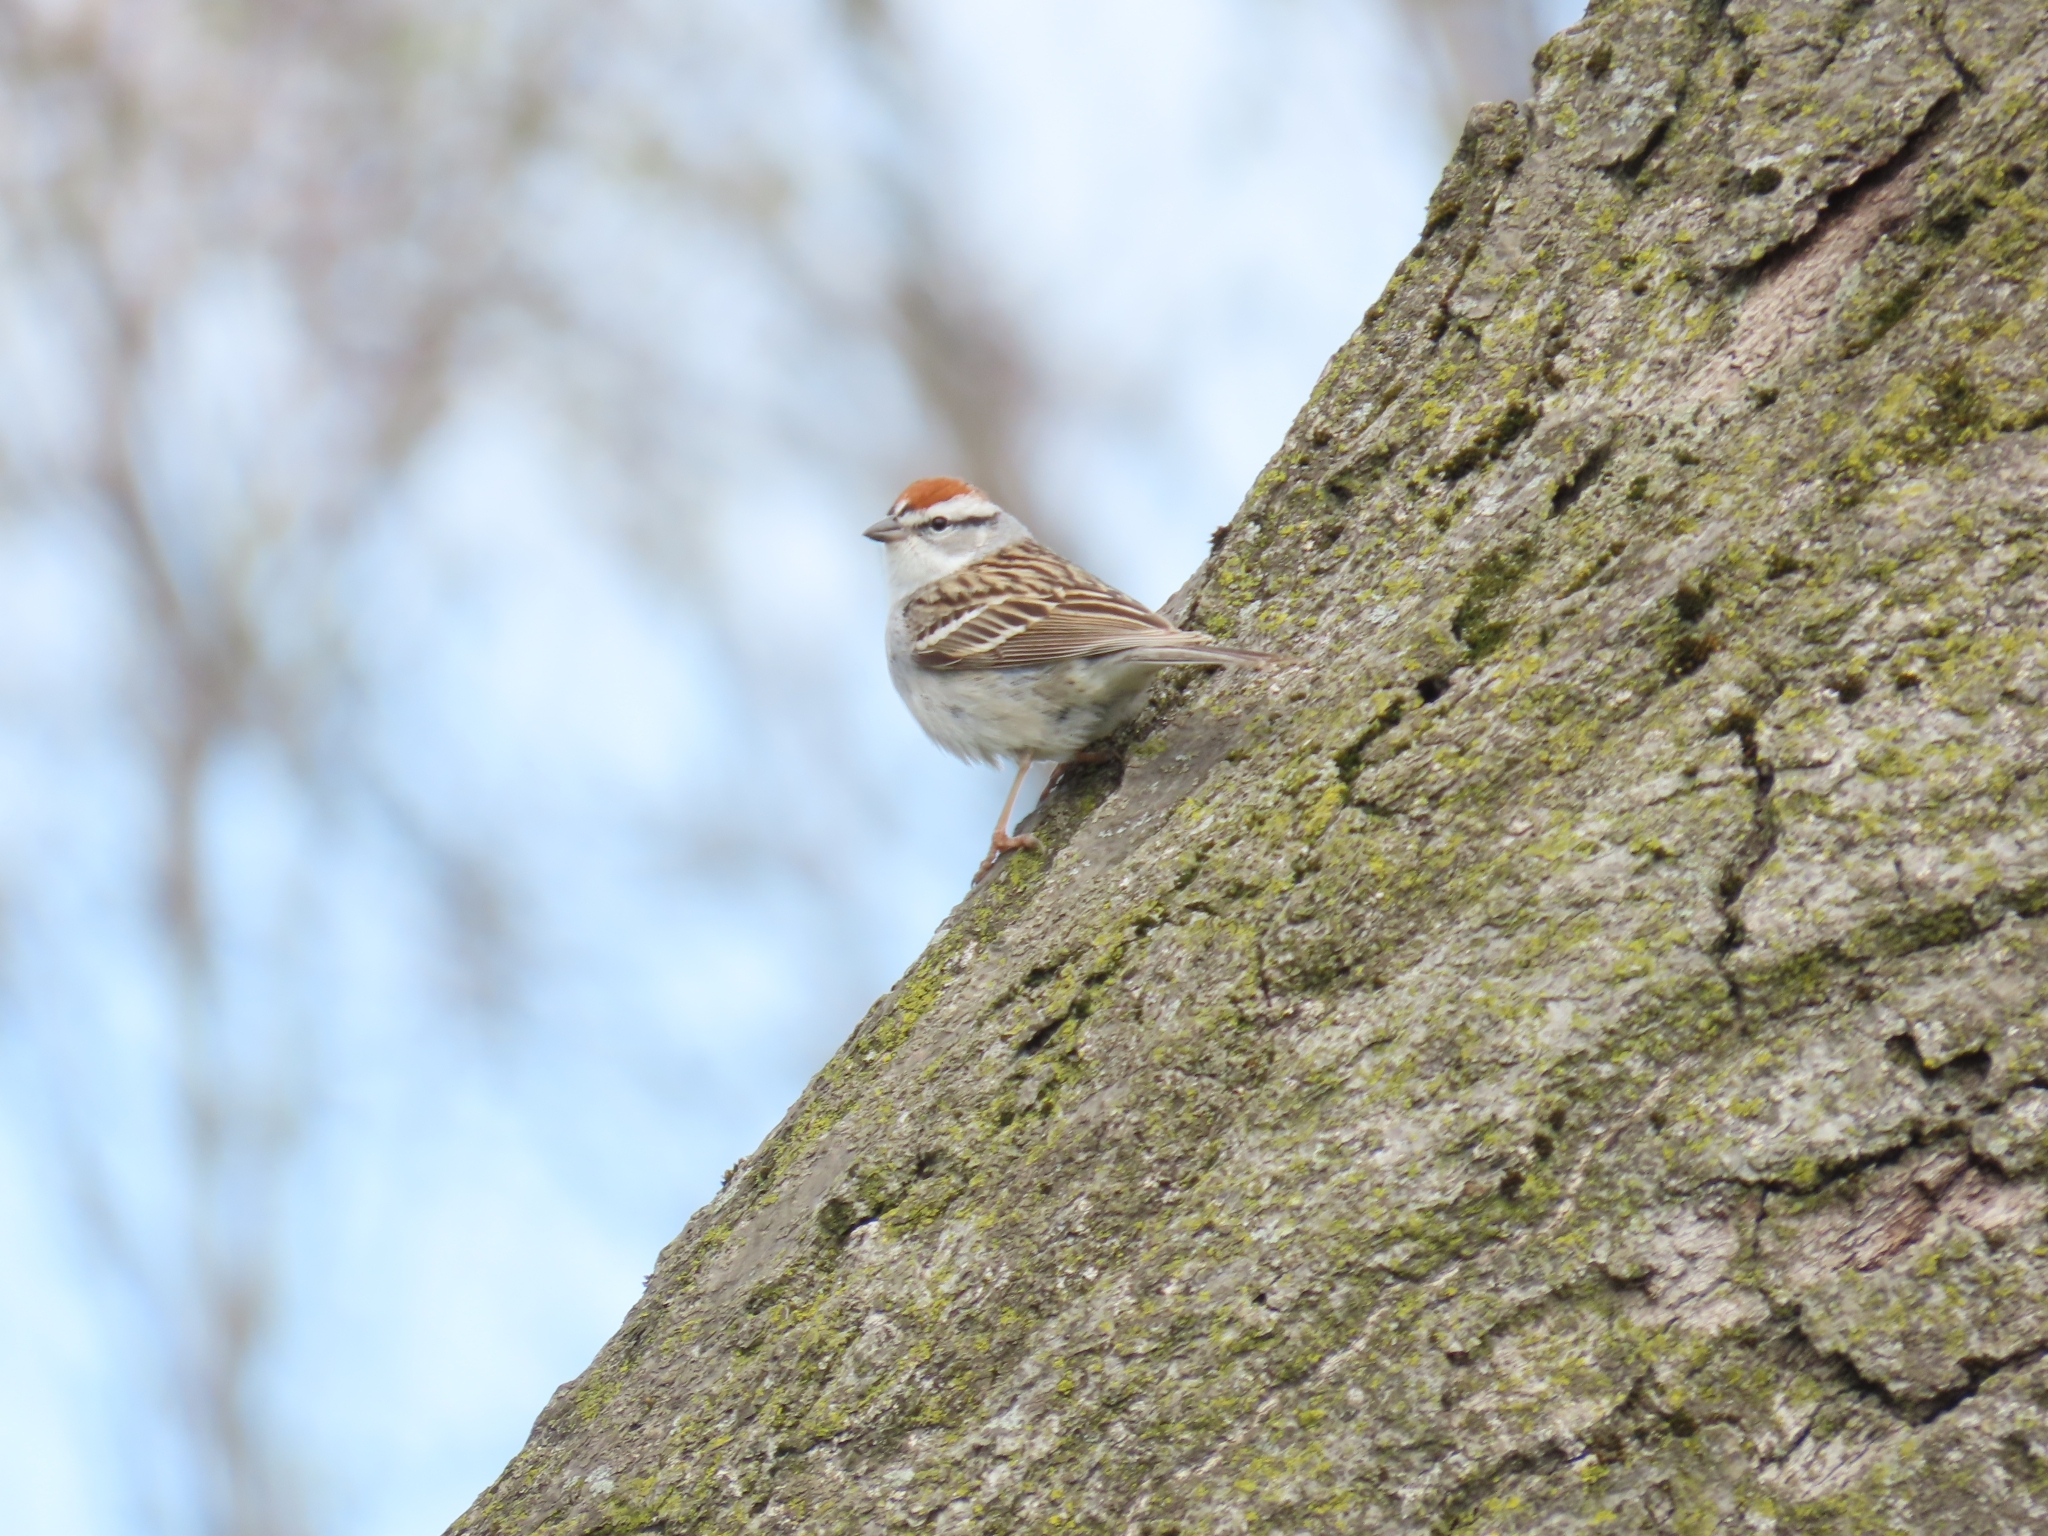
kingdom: Animalia
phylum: Chordata
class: Aves
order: Passeriformes
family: Passerellidae
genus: Spizella
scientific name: Spizella passerina
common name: Chipping sparrow
